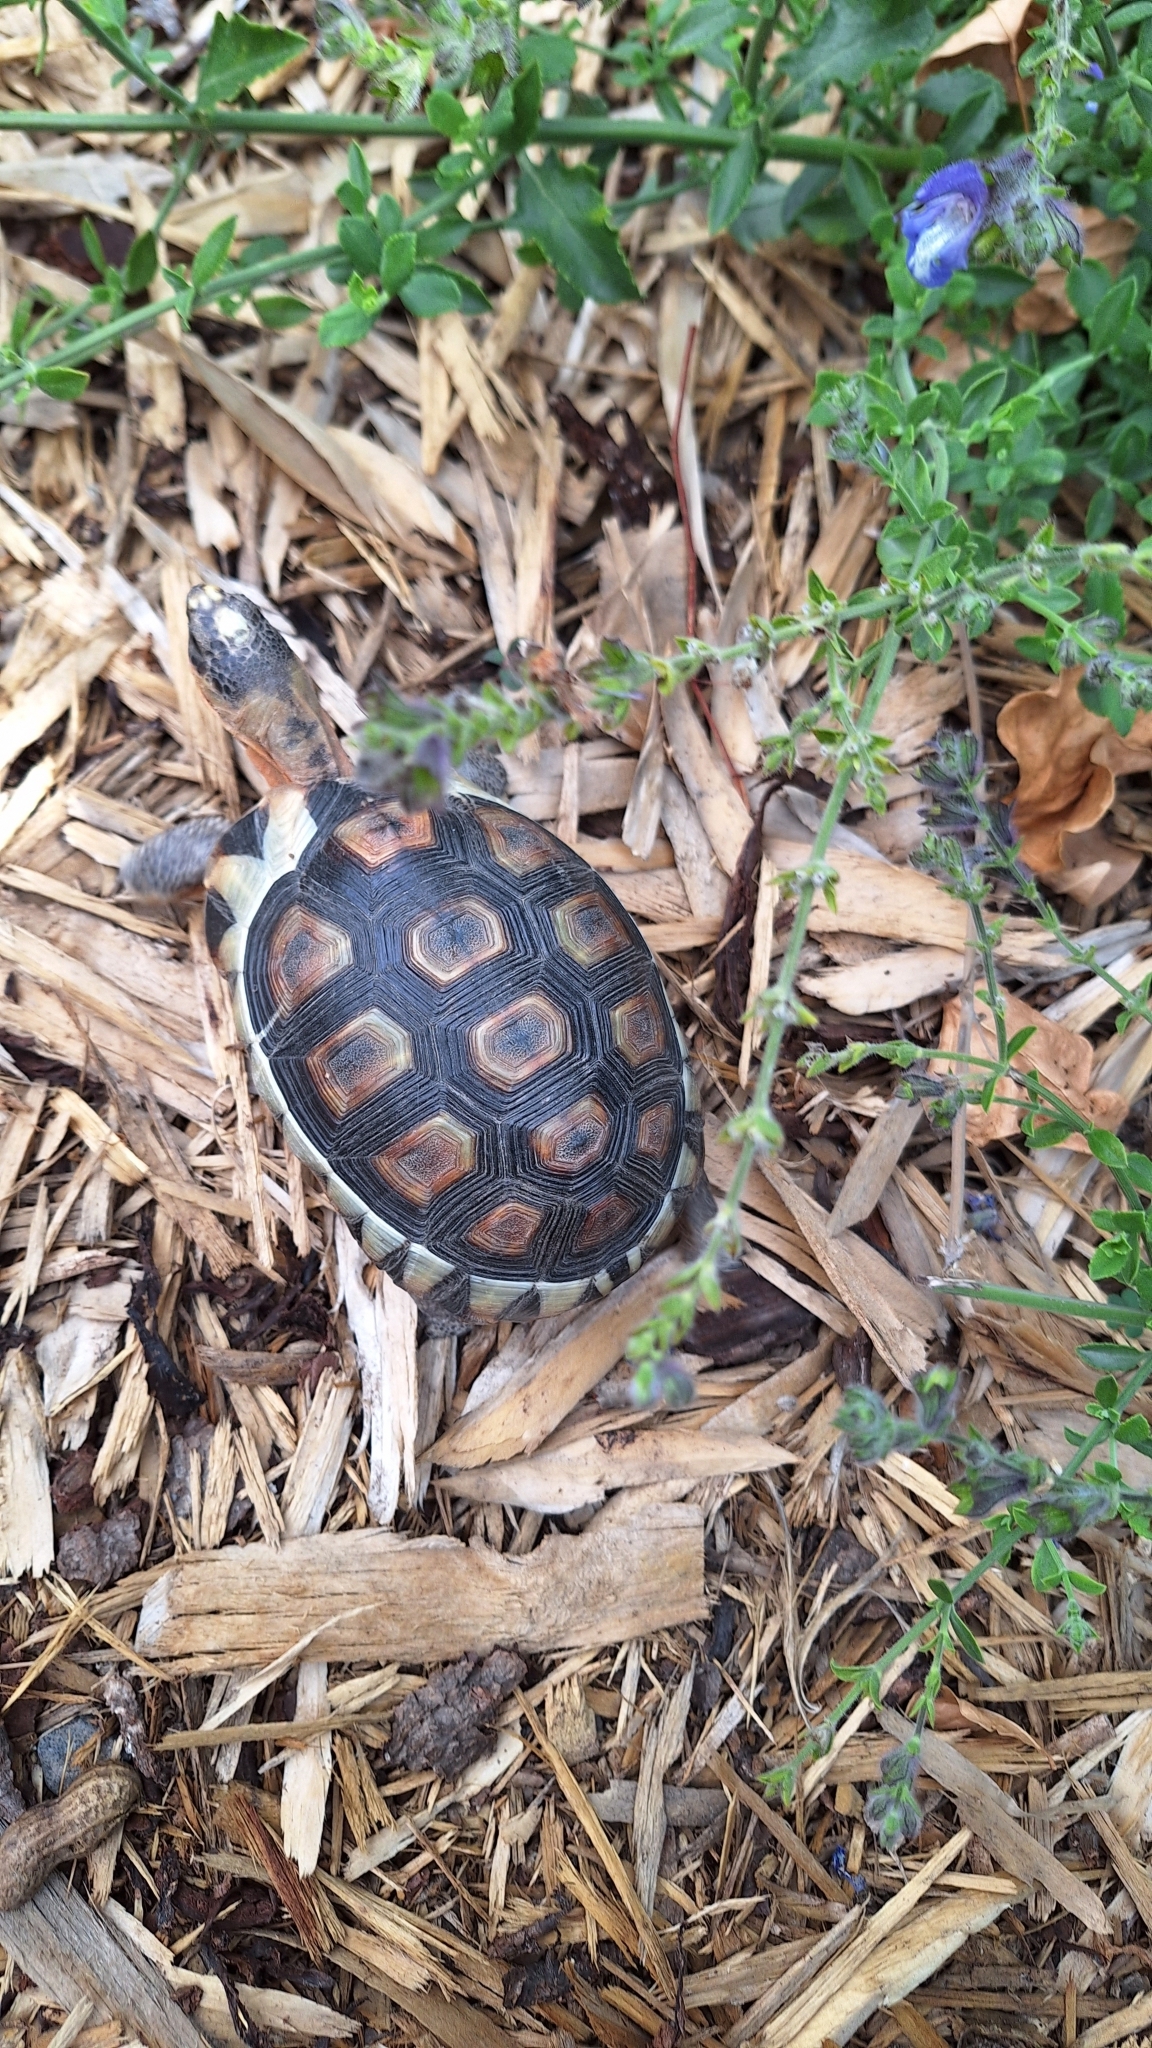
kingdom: Animalia
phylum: Chordata
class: Testudines
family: Testudinidae
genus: Chersina
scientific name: Chersina angulata
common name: South african bowsprit tortoise
